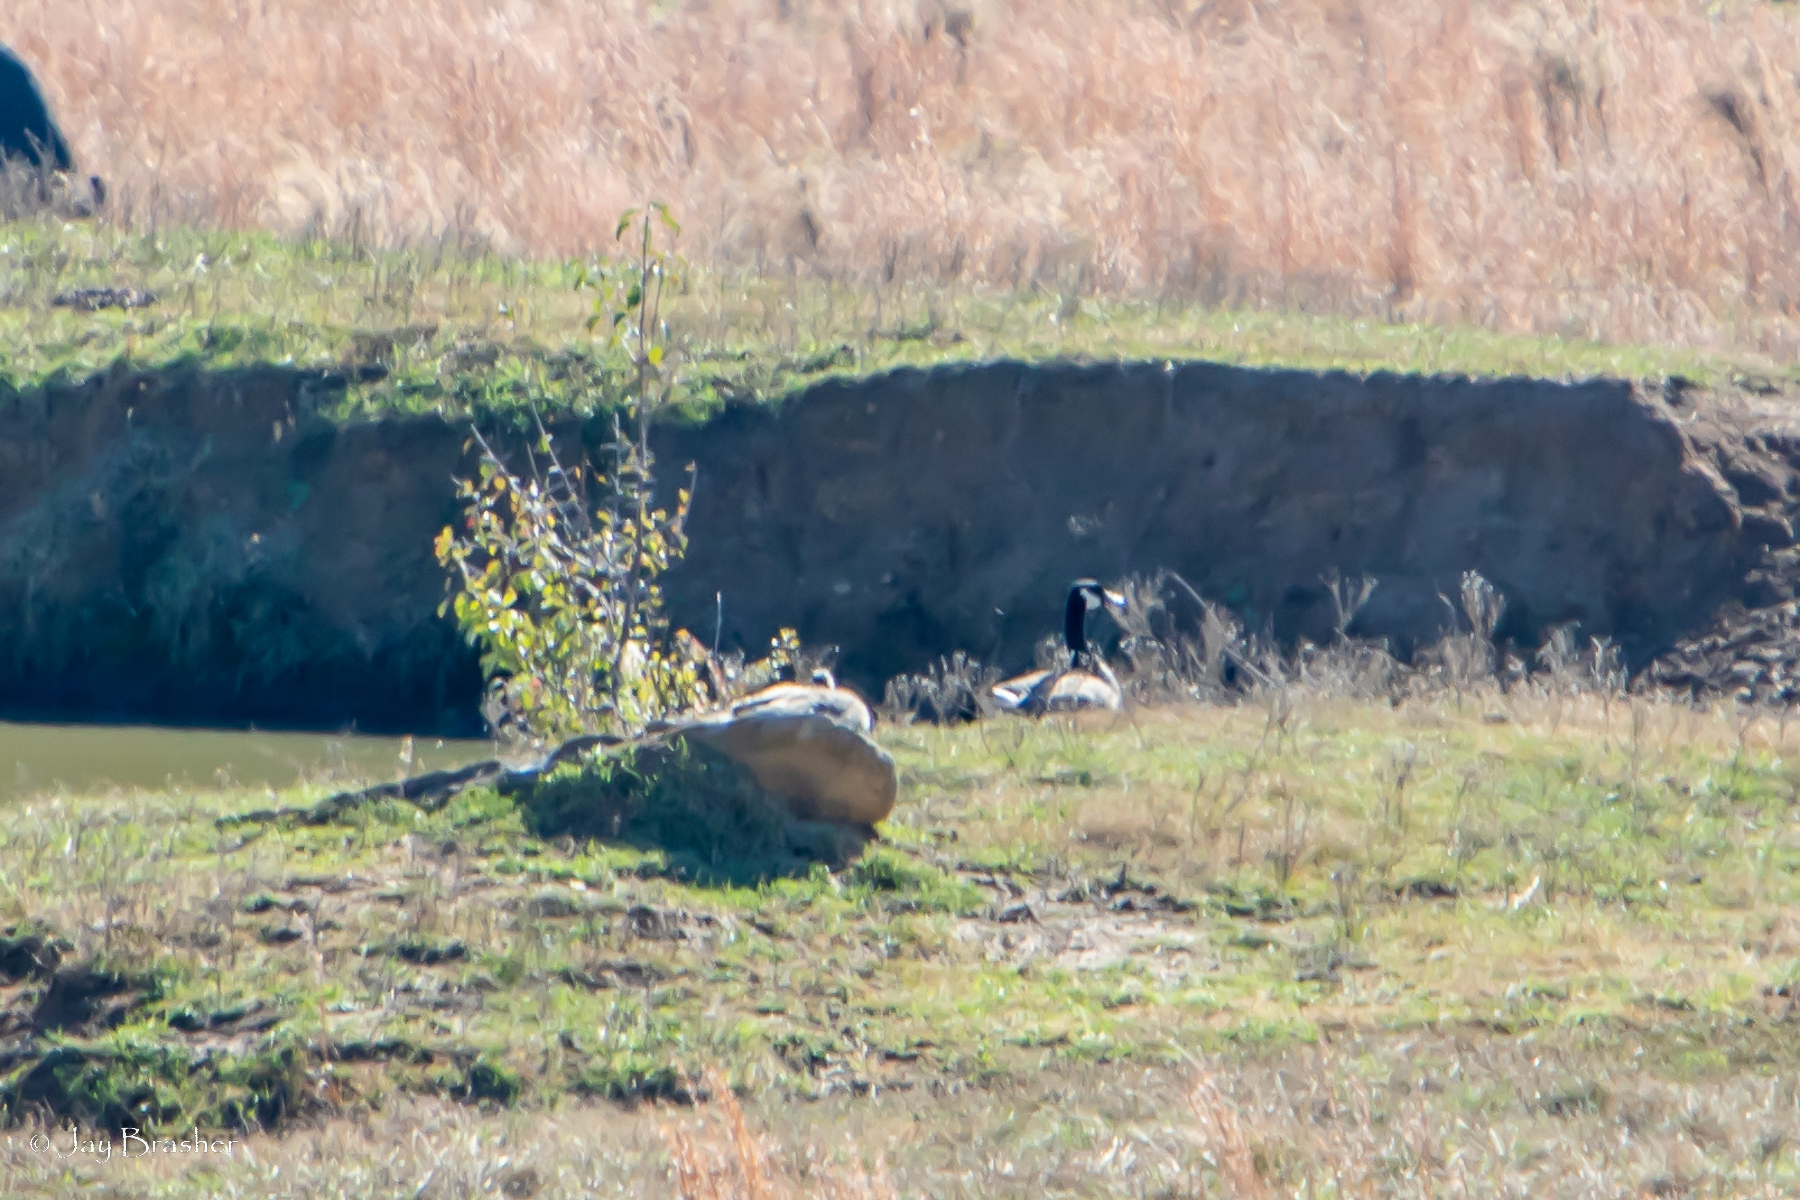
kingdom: Animalia
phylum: Chordata
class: Aves
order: Anseriformes
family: Anatidae
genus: Branta
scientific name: Branta canadensis
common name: Canada goose
